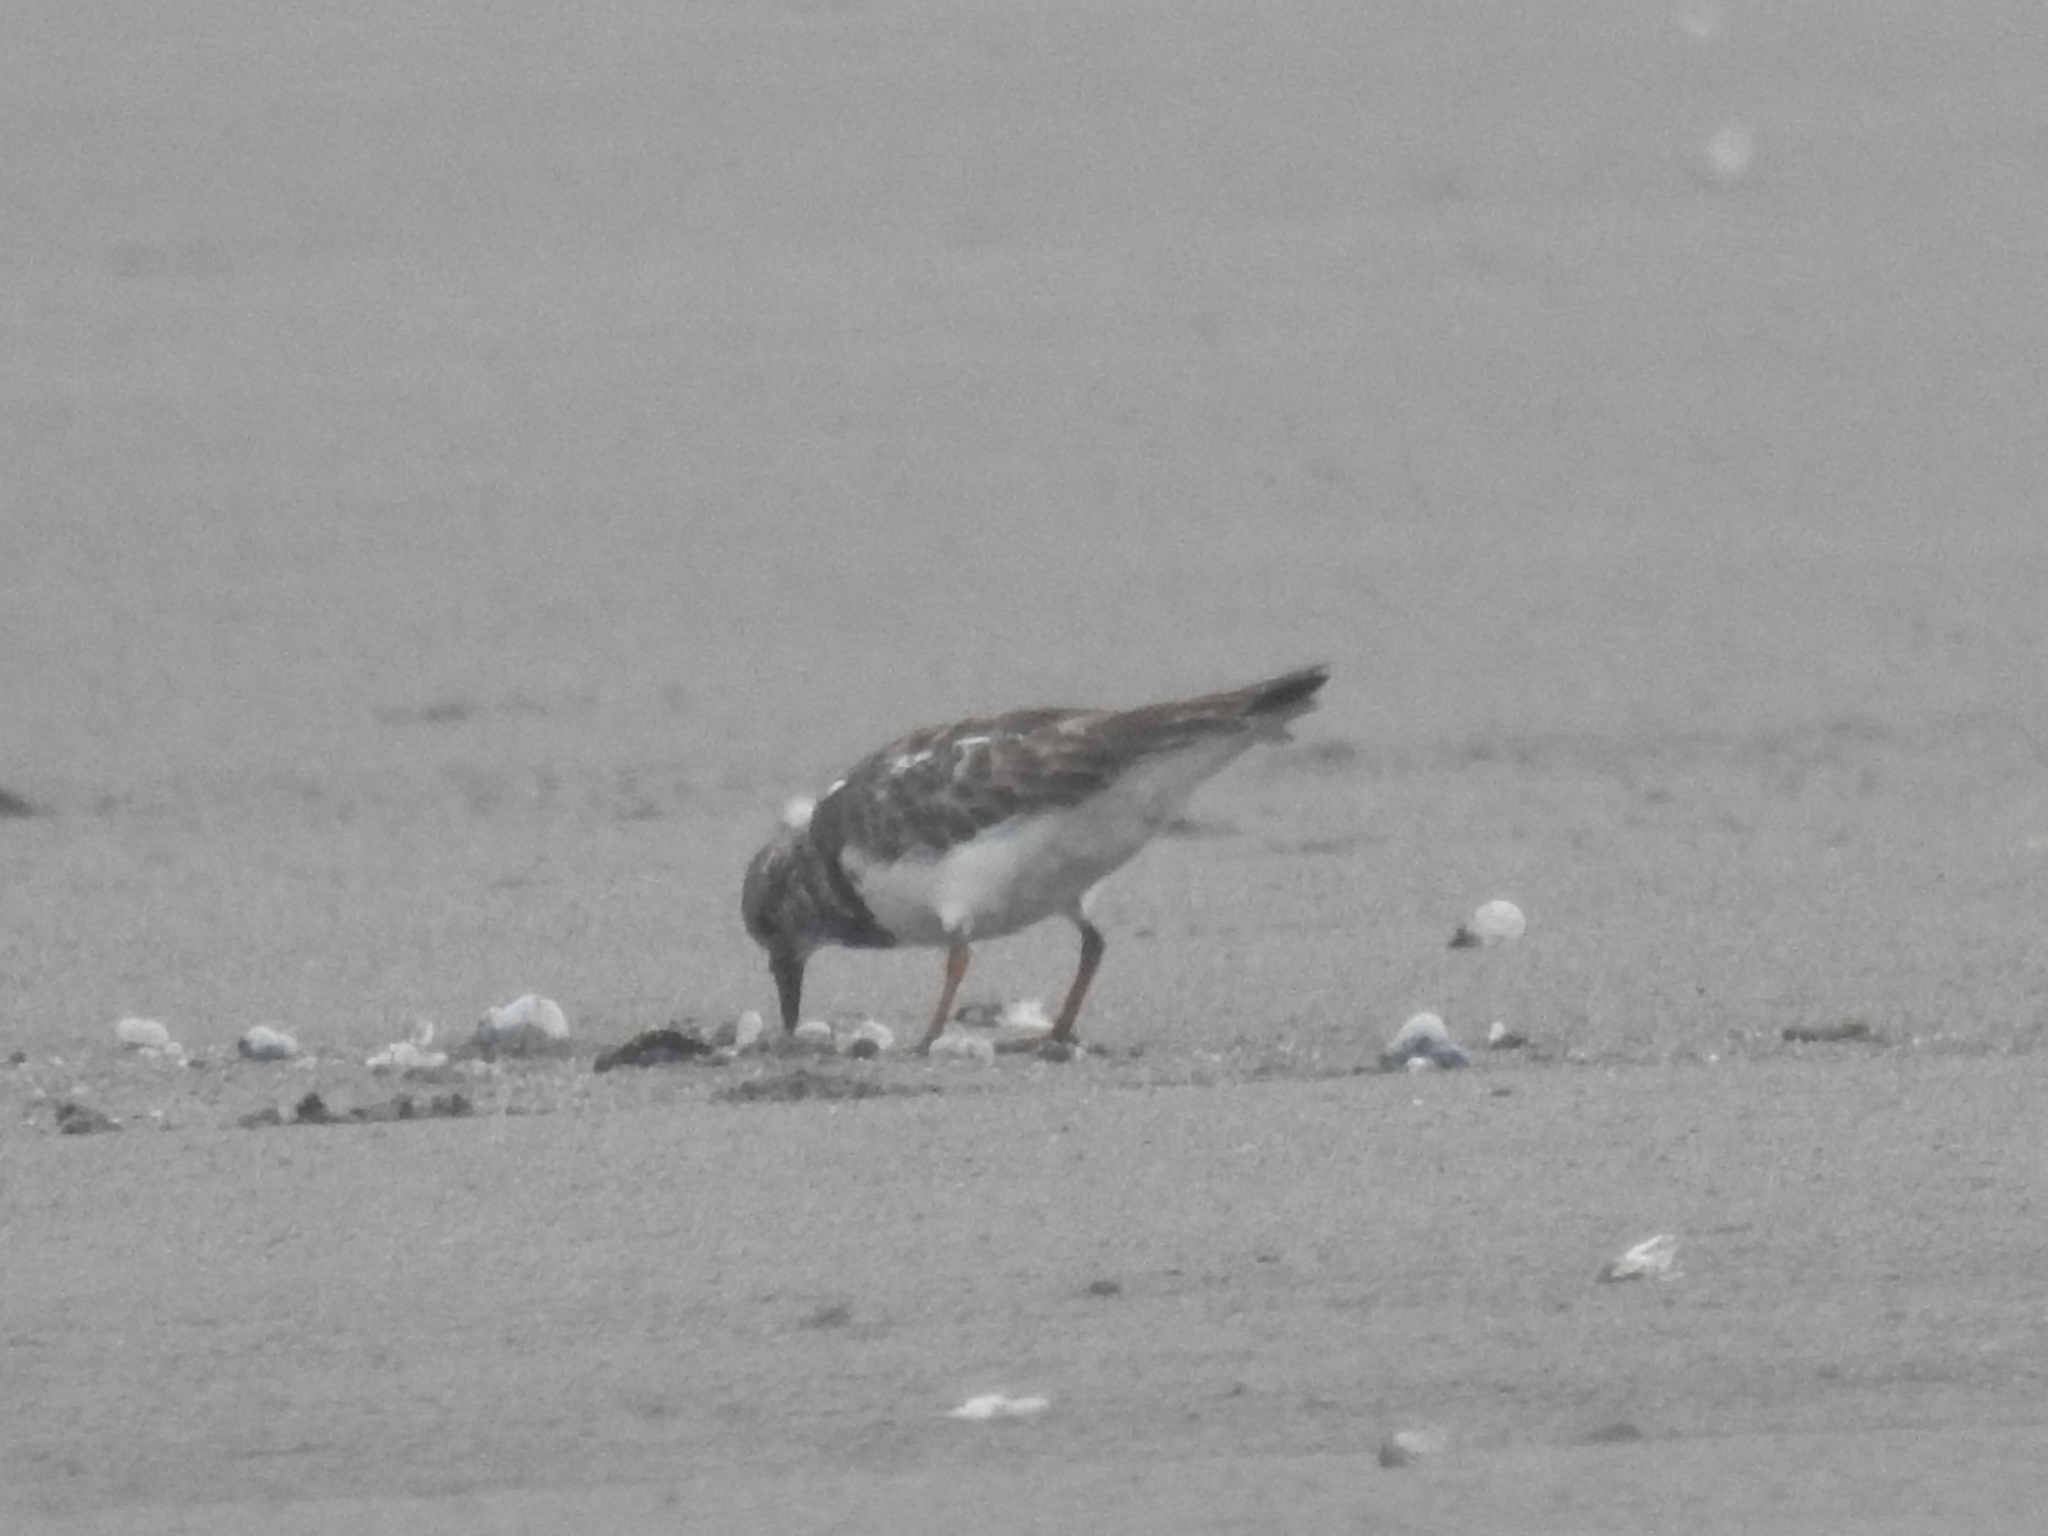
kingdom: Animalia
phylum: Chordata
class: Aves
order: Charadriiformes
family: Scolopacidae
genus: Arenaria
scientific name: Arenaria interpres
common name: Ruddy turnstone
